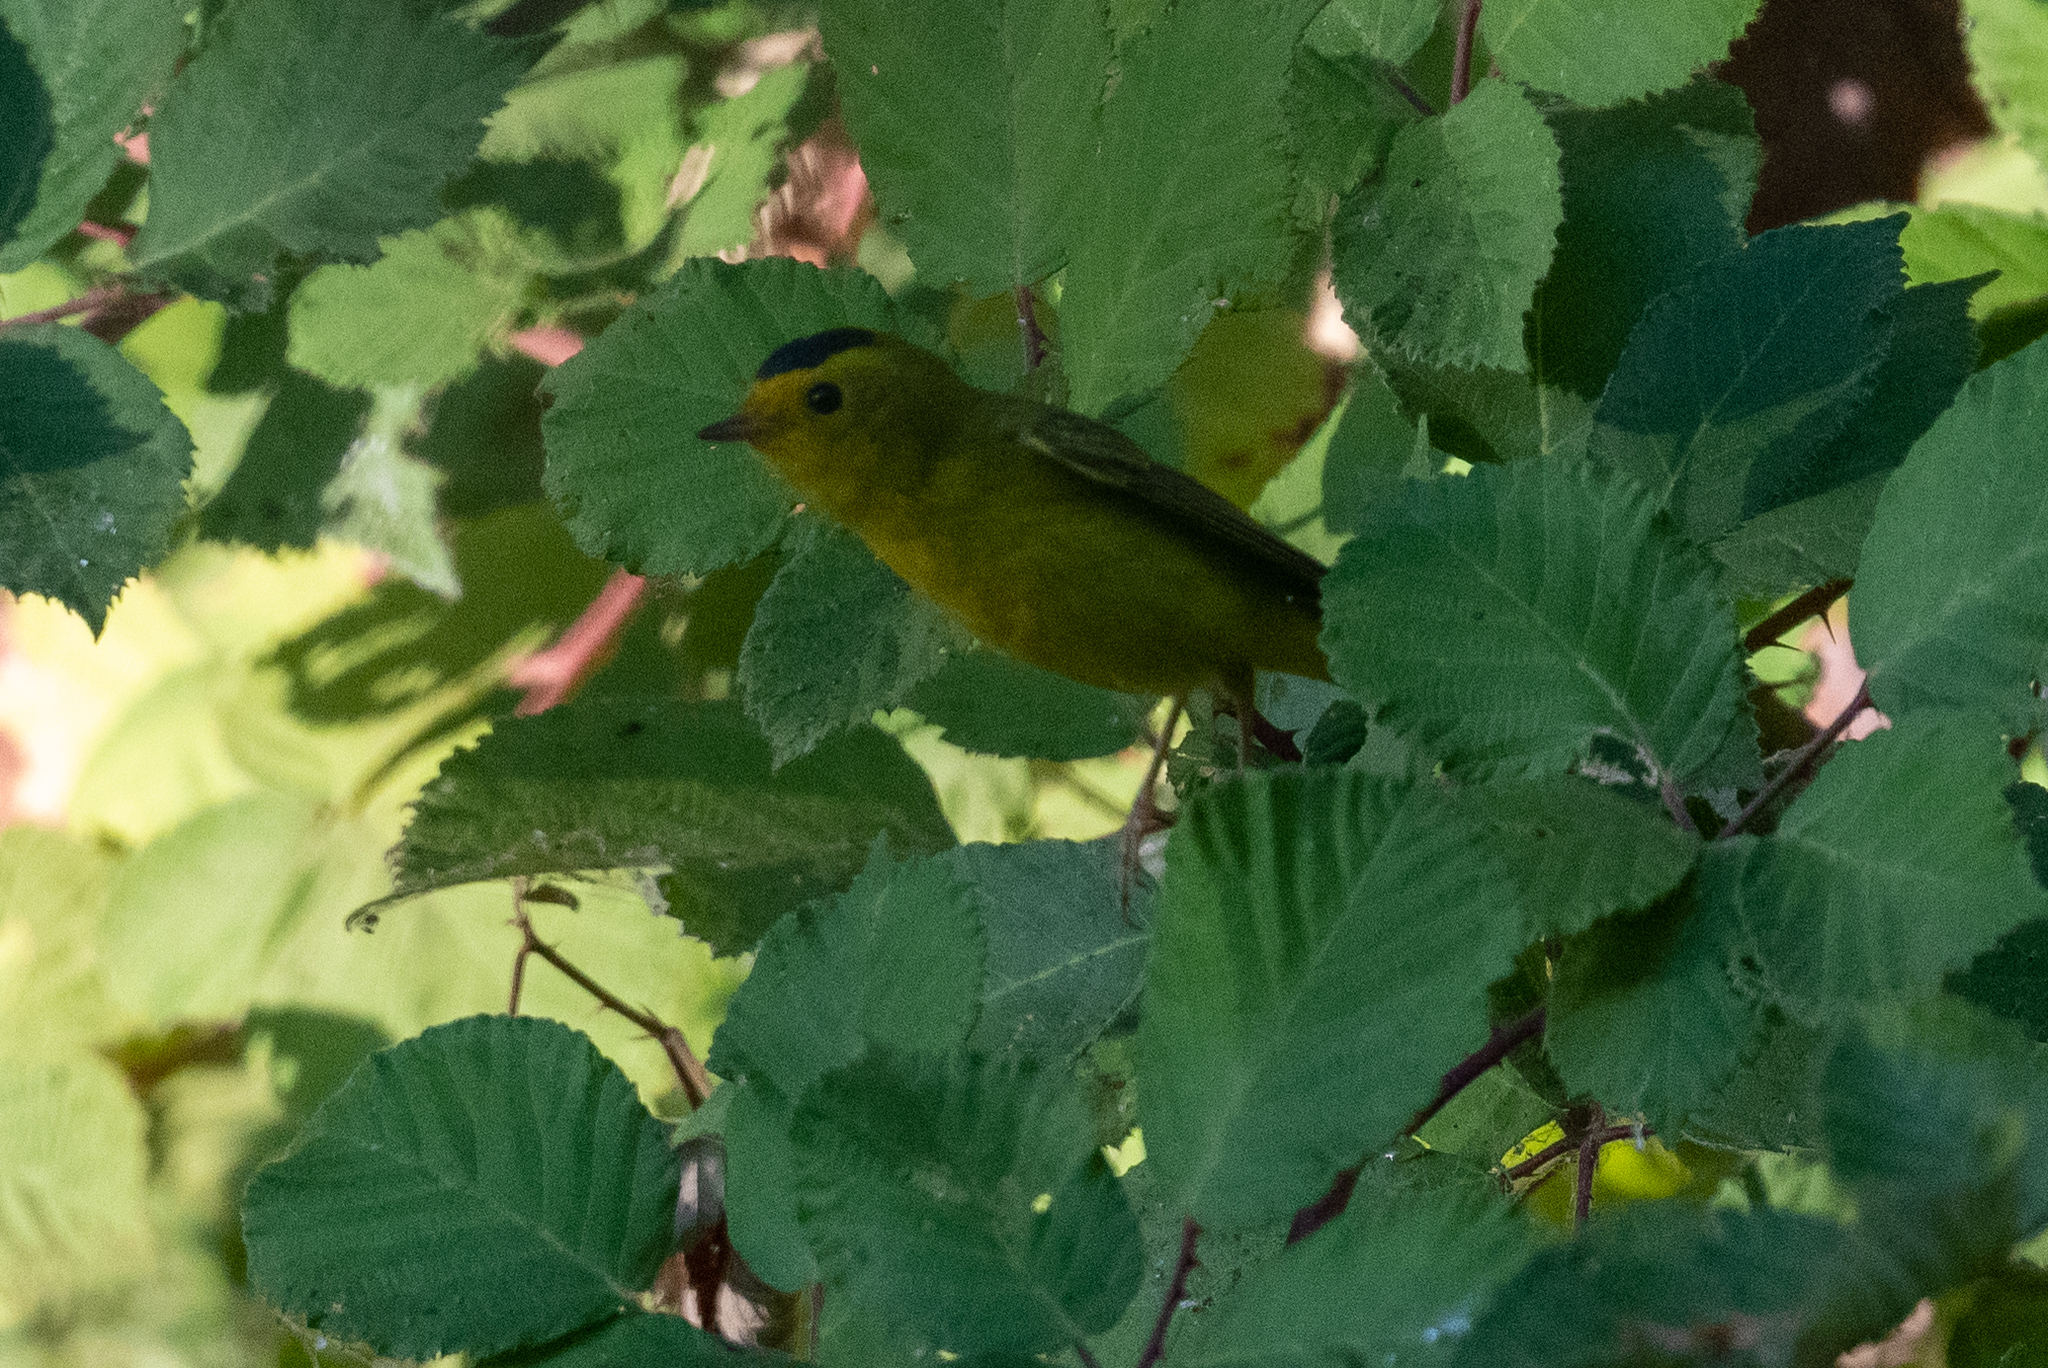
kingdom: Animalia
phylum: Chordata
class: Aves
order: Passeriformes
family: Parulidae
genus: Cardellina
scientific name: Cardellina pusilla
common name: Wilson's warbler
